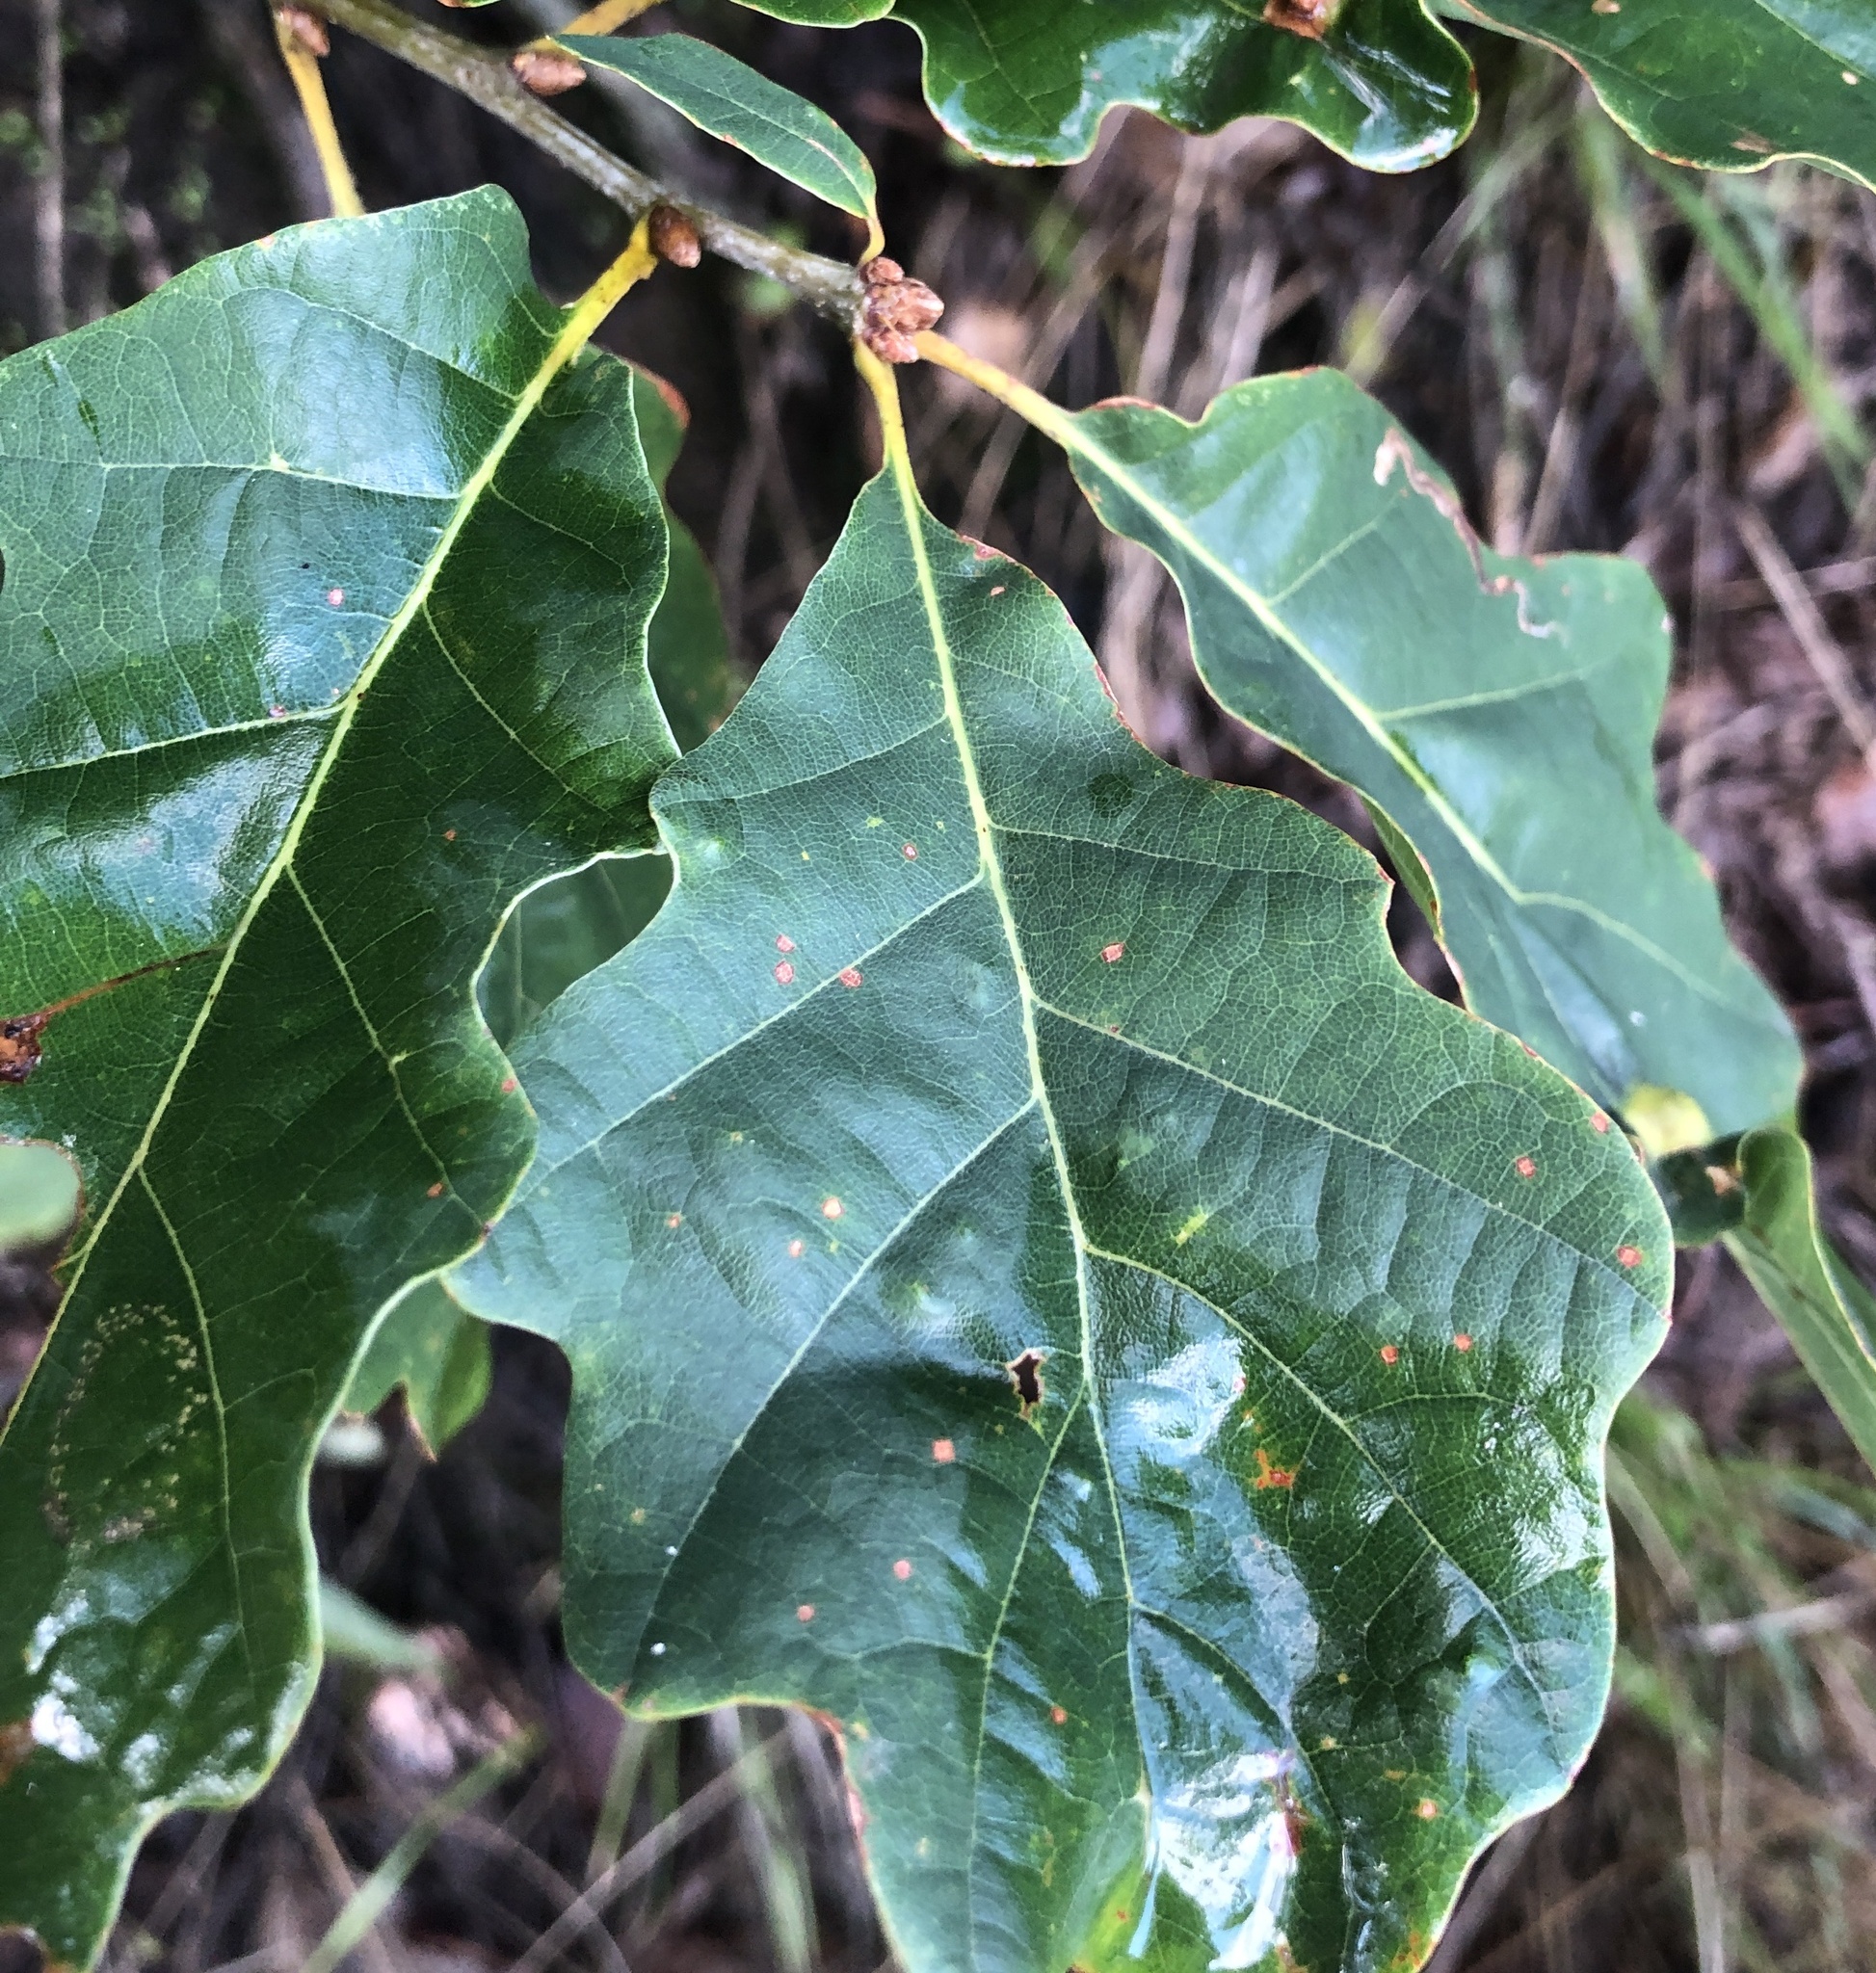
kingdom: Plantae
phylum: Tracheophyta
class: Magnoliopsida
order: Fagales
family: Fagaceae
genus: Quercus
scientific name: Quercus petraea
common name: Sessile oak
